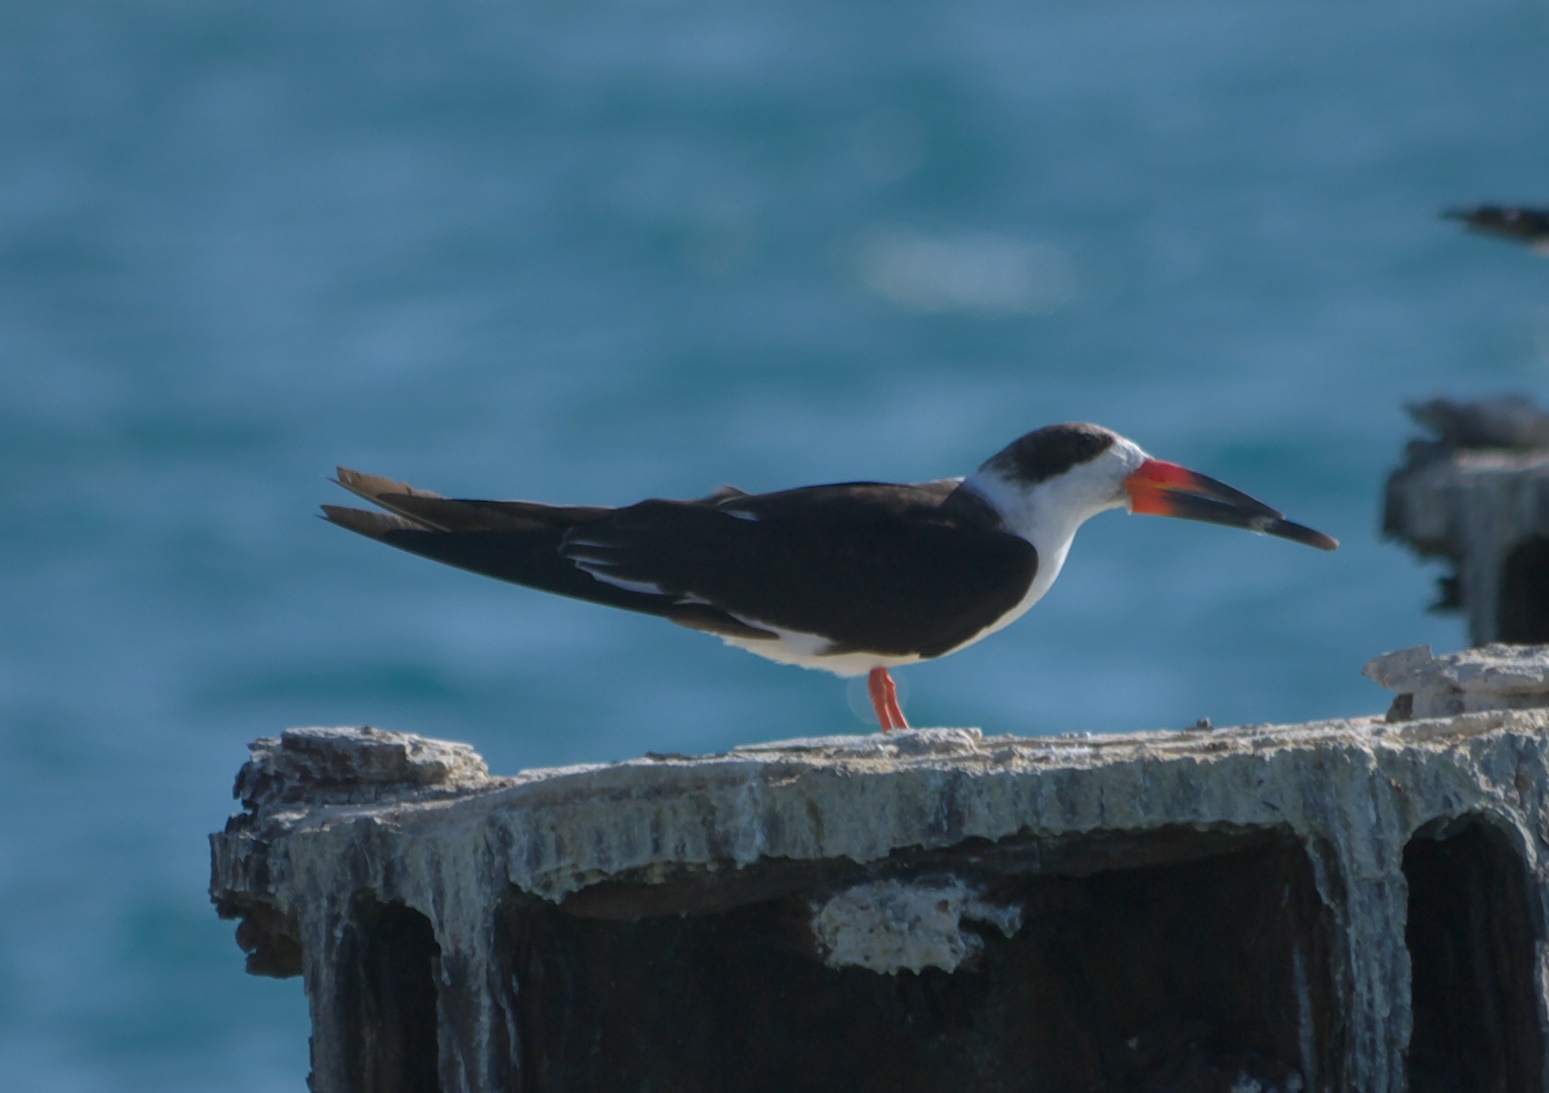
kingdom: Animalia
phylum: Chordata
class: Aves
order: Charadriiformes
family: Laridae
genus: Rynchops
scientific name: Rynchops niger
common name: Black skimmer
